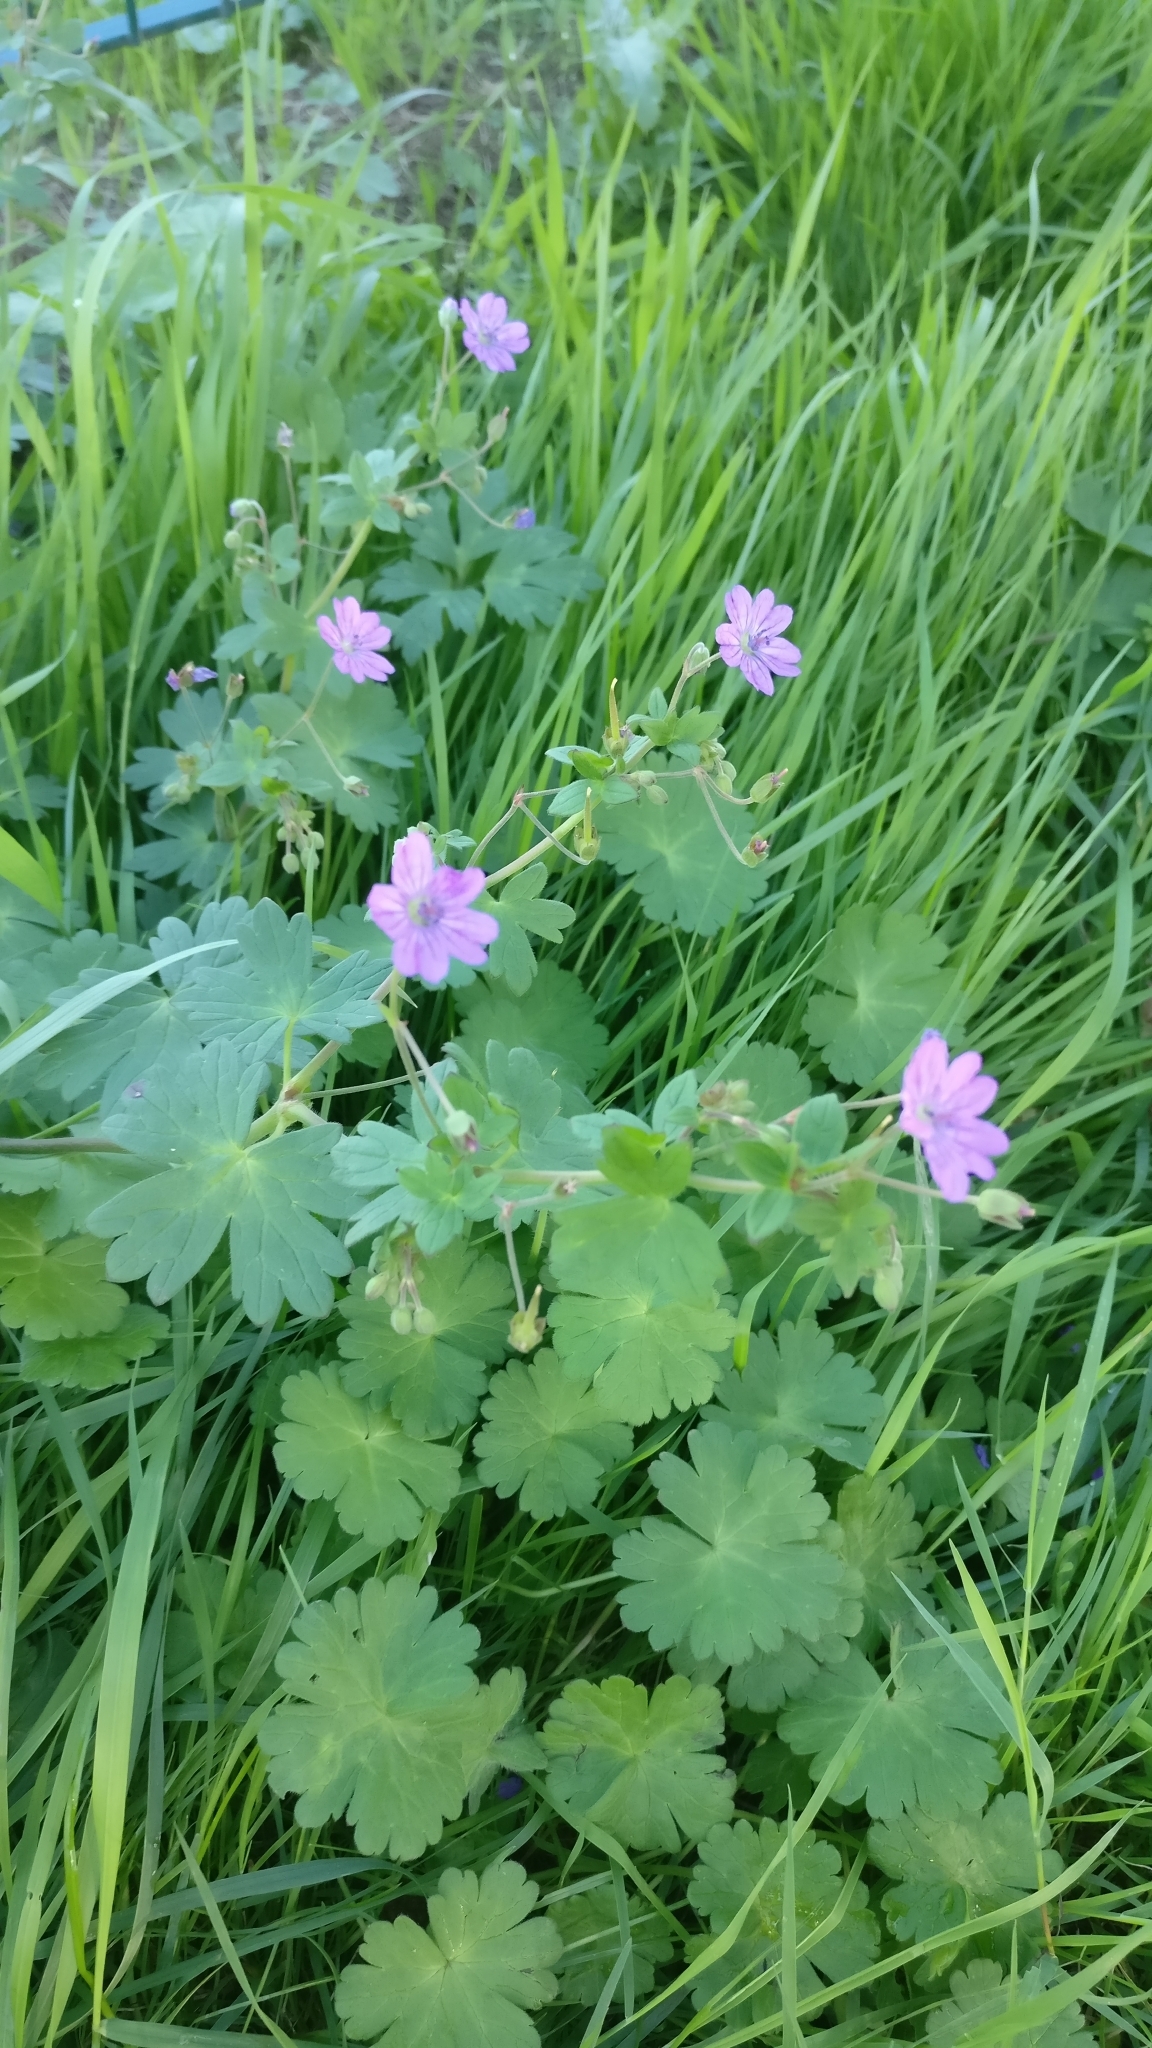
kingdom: Plantae
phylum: Tracheophyta
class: Magnoliopsida
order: Geraniales
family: Geraniaceae
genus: Geranium
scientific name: Geranium pyrenaicum
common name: Hedgerow crane's-bill
